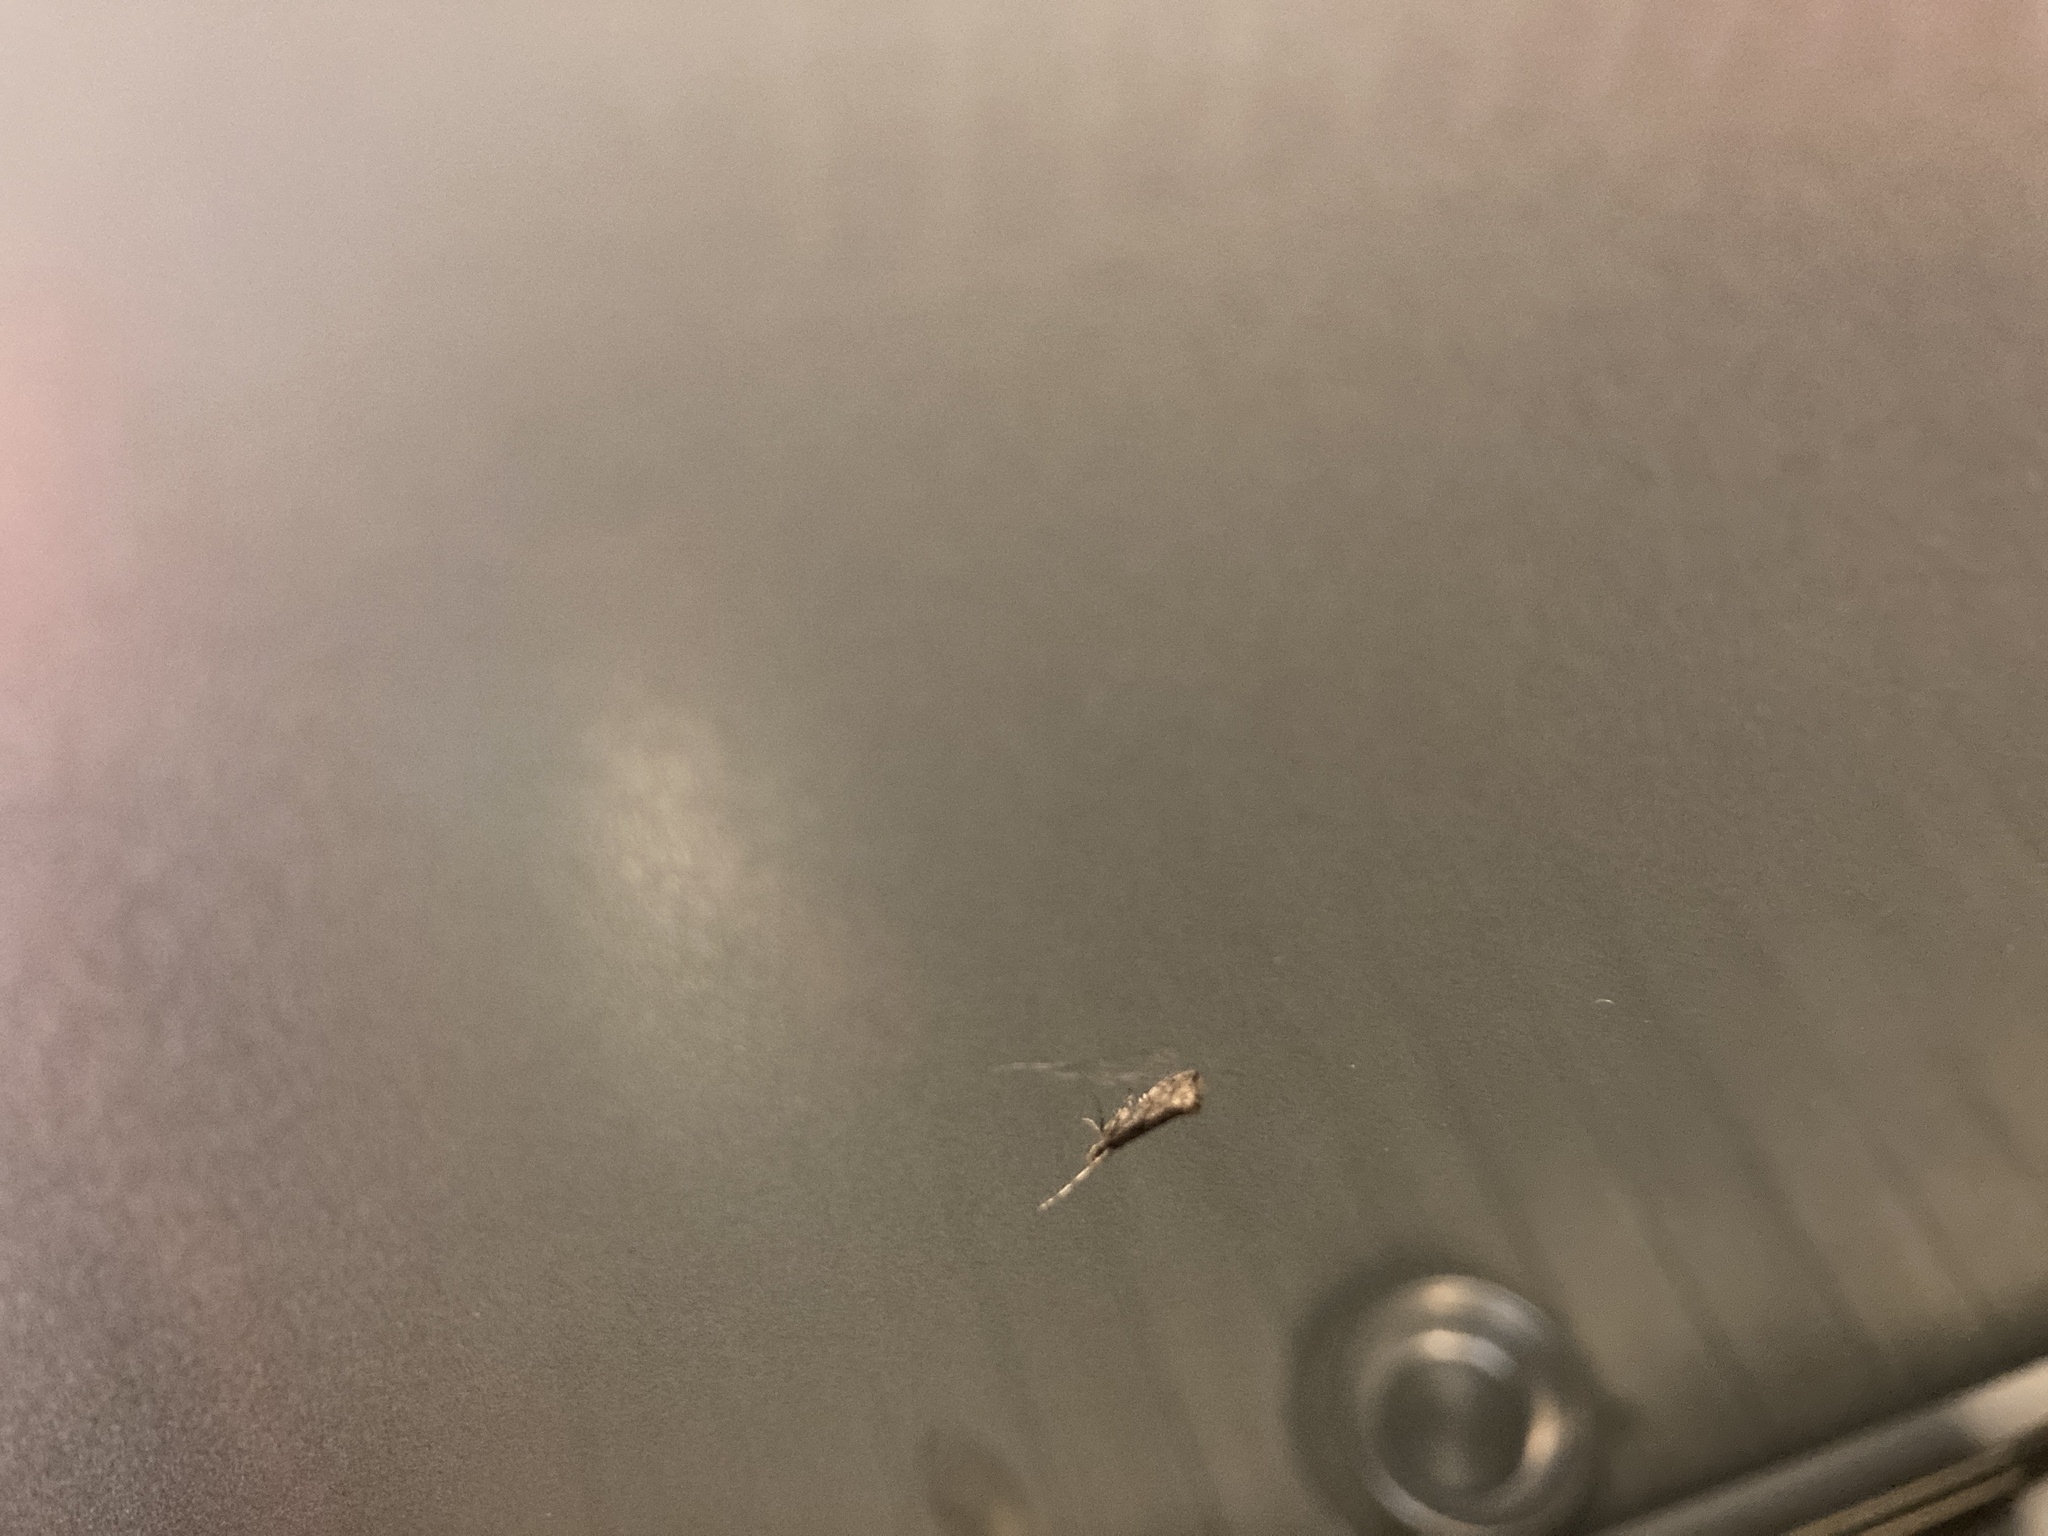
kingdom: Animalia
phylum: Arthropoda
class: Insecta
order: Lepidoptera
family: Plutellidae
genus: Leuroperna
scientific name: Leuroperna sera
